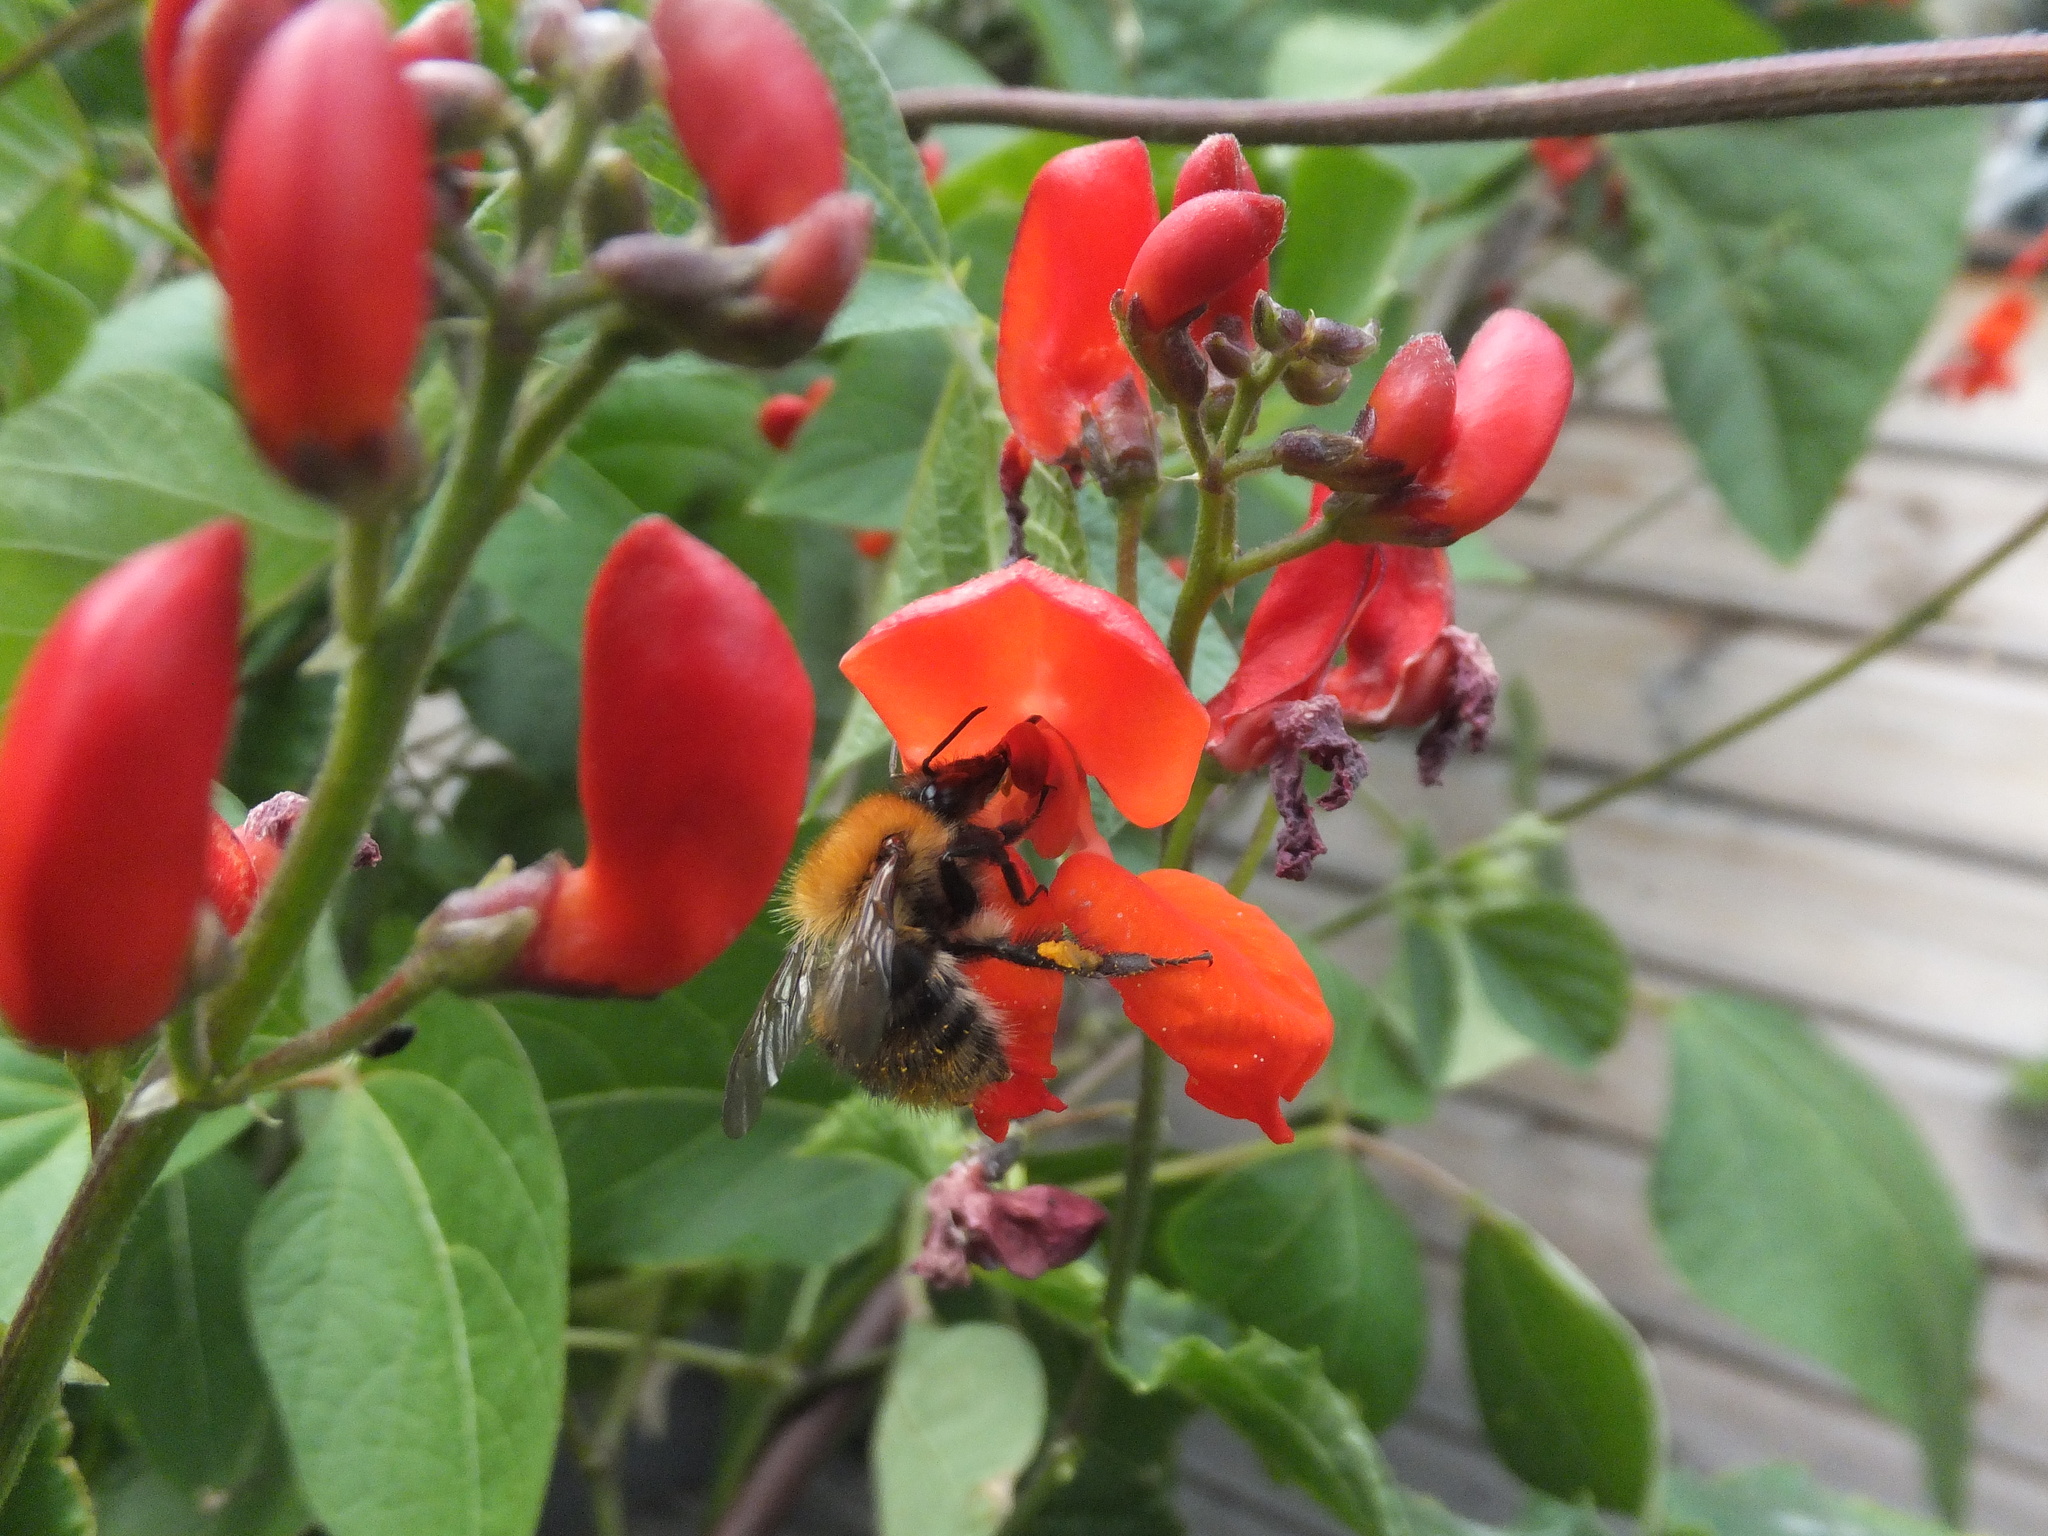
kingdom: Animalia
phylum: Arthropoda
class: Insecta
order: Hymenoptera
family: Apidae
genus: Bombus
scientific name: Bombus pascuorum
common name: Common carder bee
